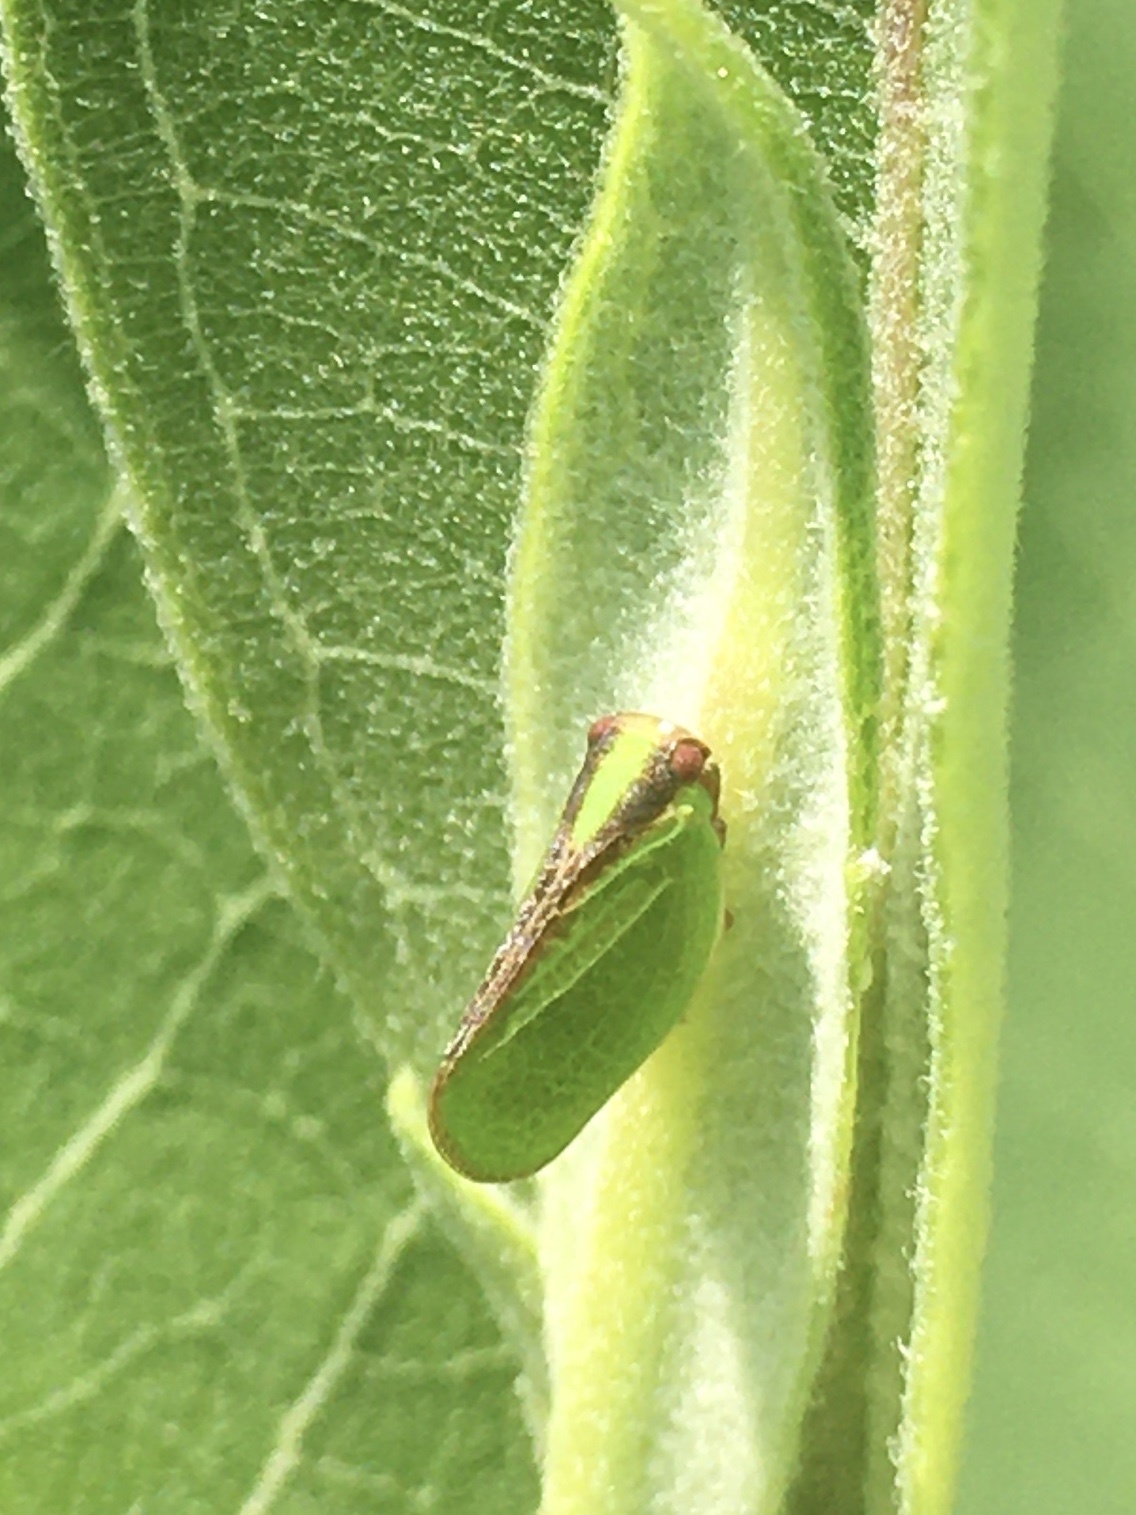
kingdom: Animalia
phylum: Arthropoda
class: Insecta
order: Hemiptera
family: Acanaloniidae
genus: Acanalonia
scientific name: Acanalonia bivittata
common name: Two-striped planthopper
